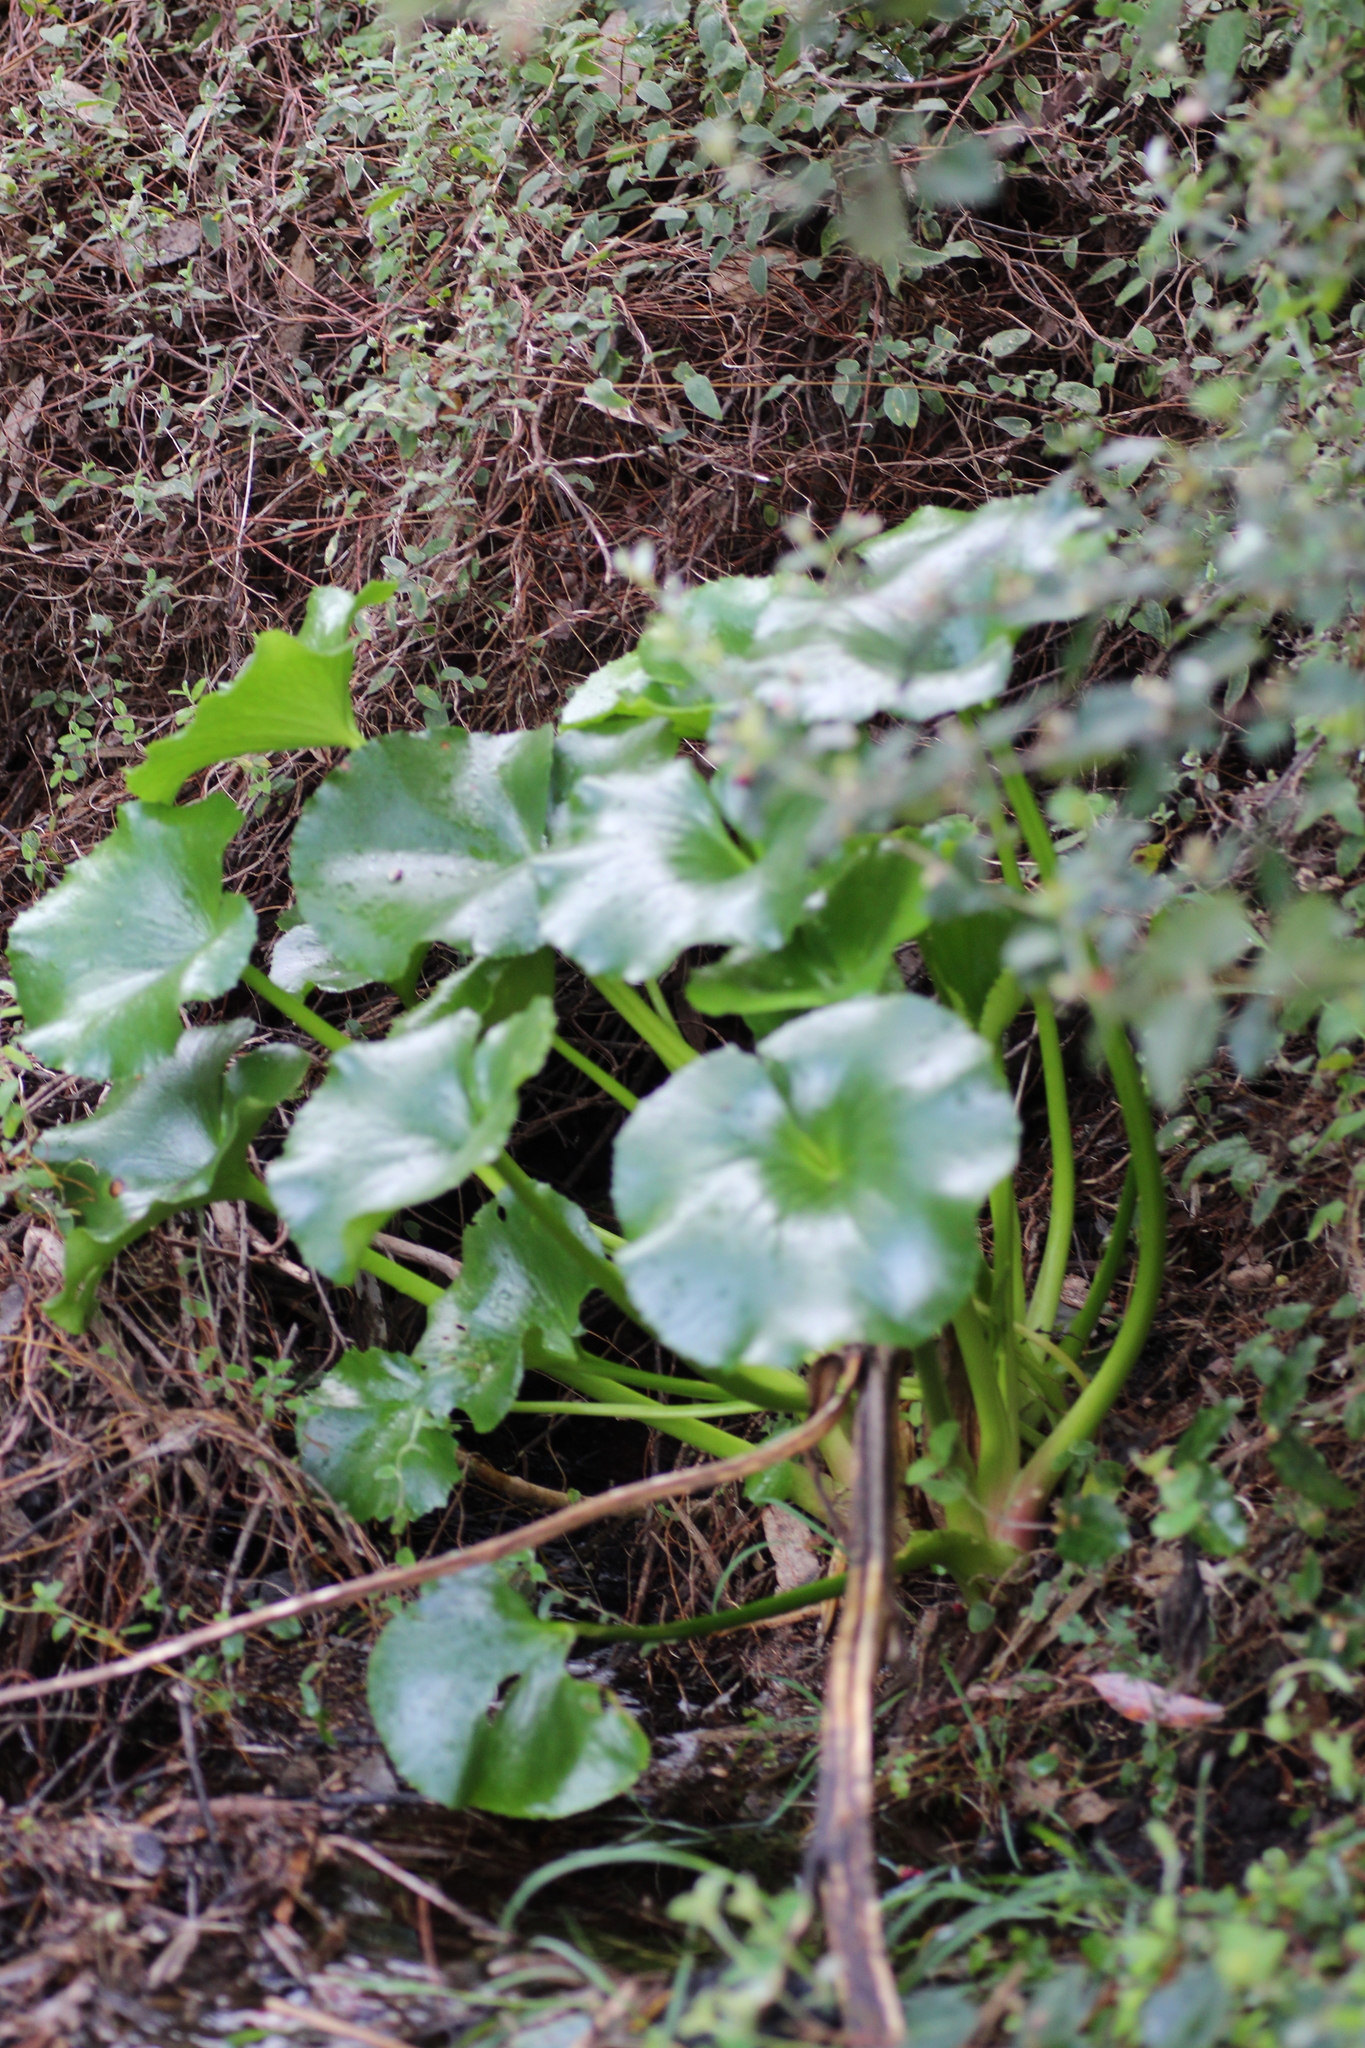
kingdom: Plantae
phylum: Tracheophyta
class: Magnoliopsida
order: Asterales
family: Menyanthaceae
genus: Ornduffia
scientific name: Ornduffia calthifolia
